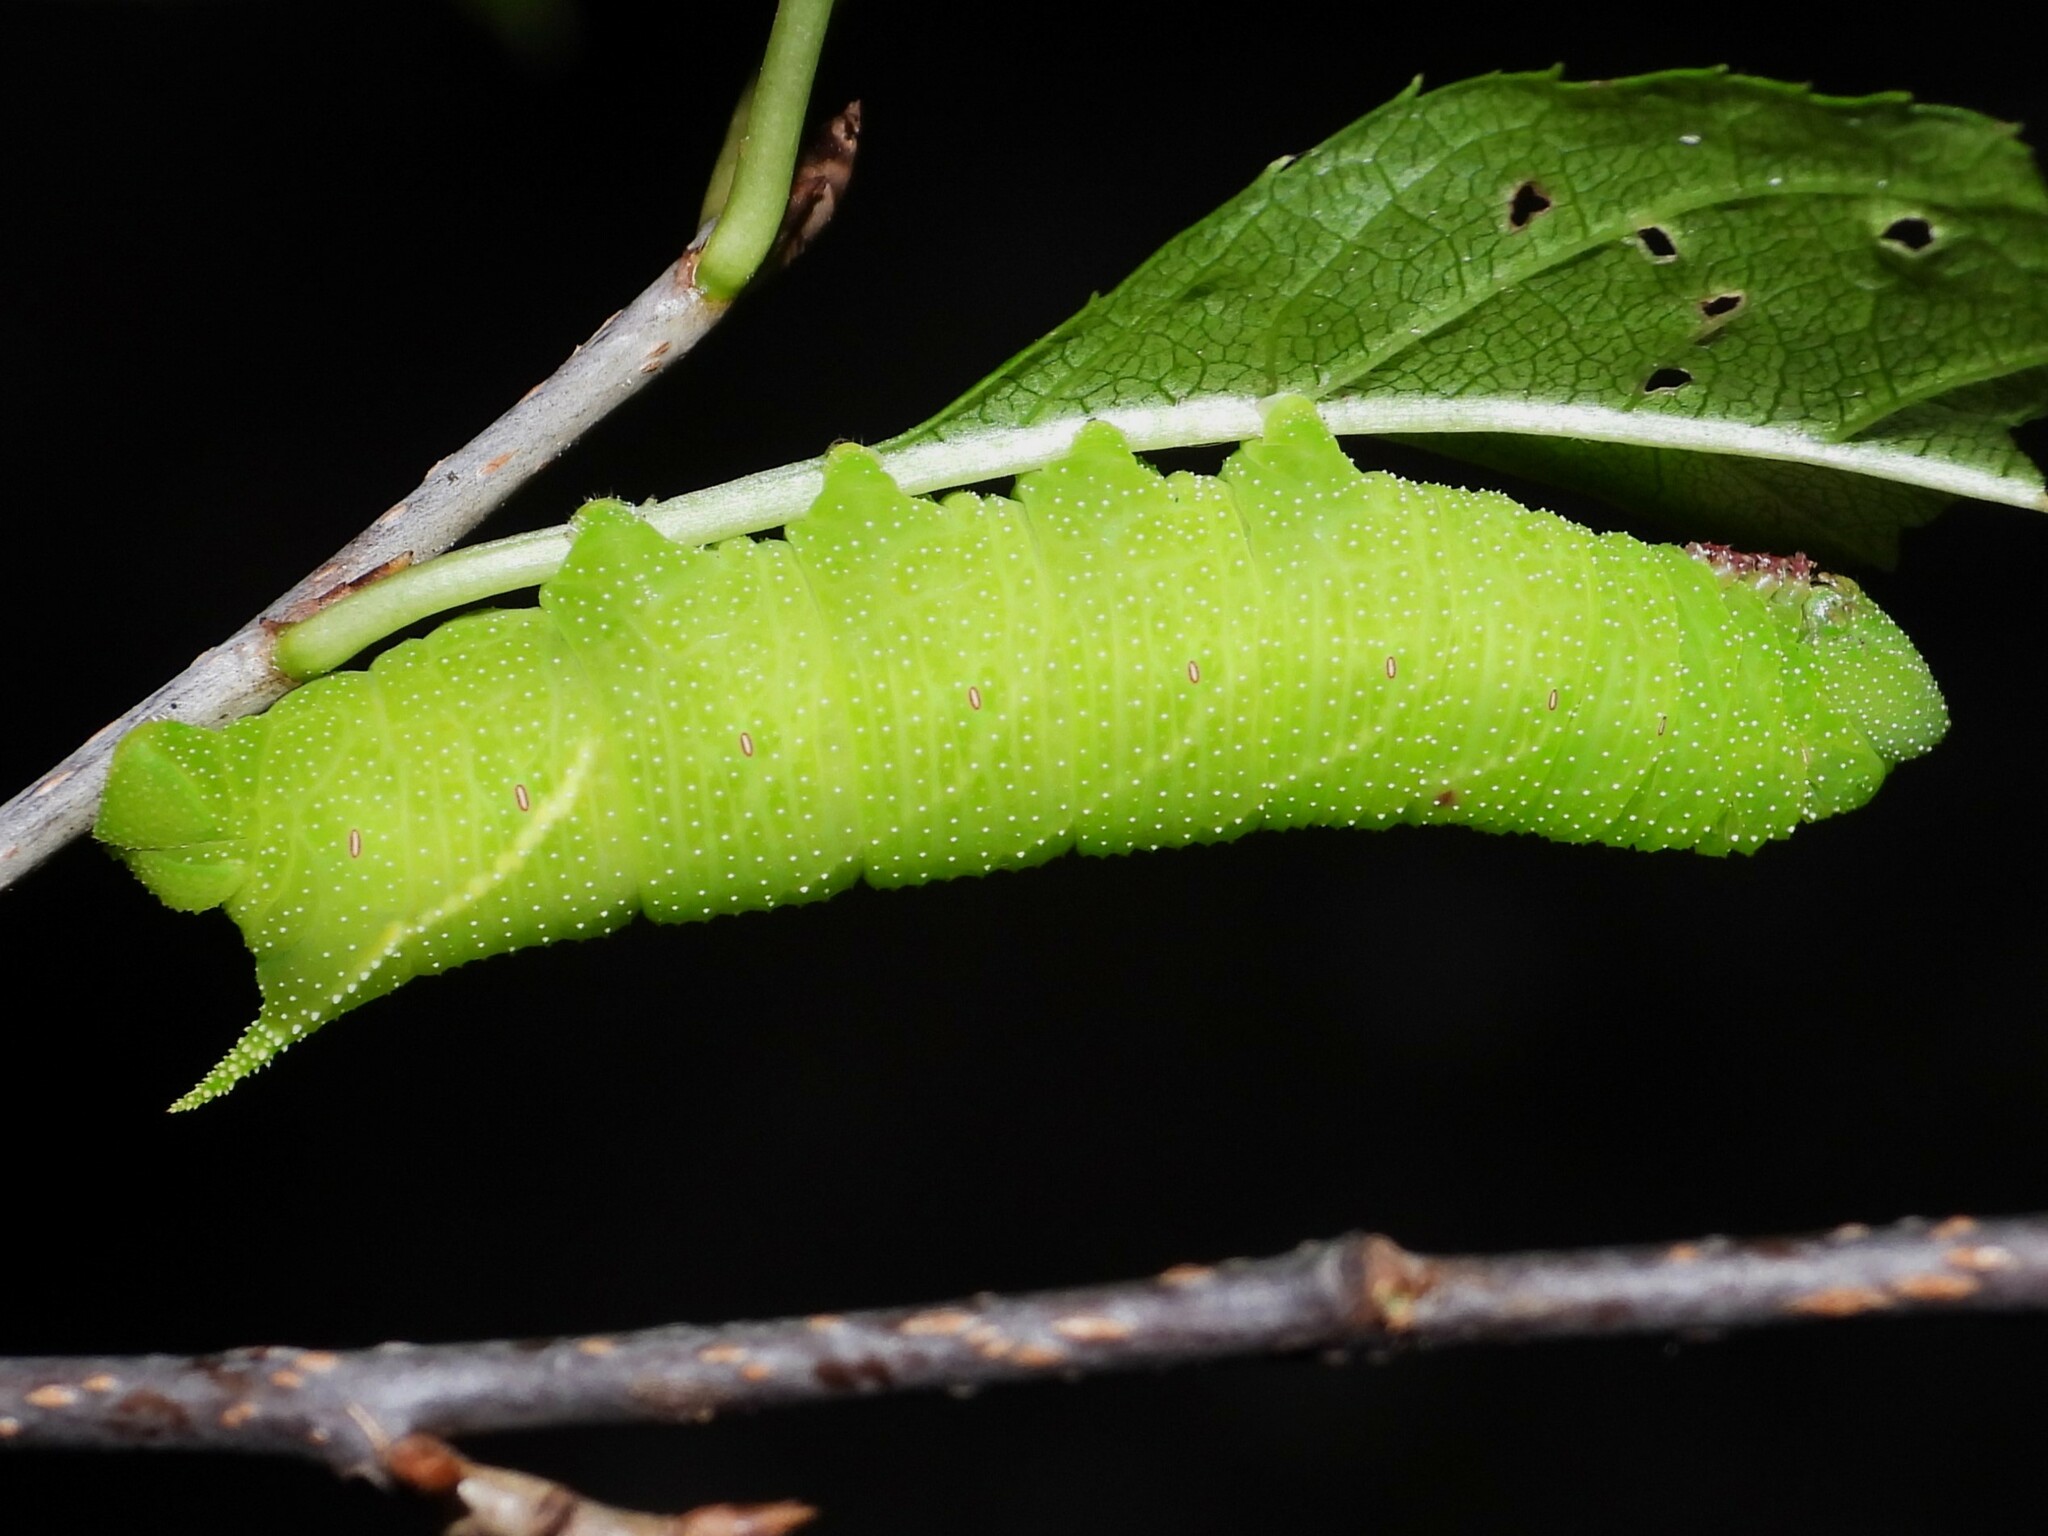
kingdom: Animalia
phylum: Arthropoda
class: Insecta
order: Lepidoptera
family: Sphingidae
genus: Paonias
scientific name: Paonias myops
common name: Small-eyed sphinx
